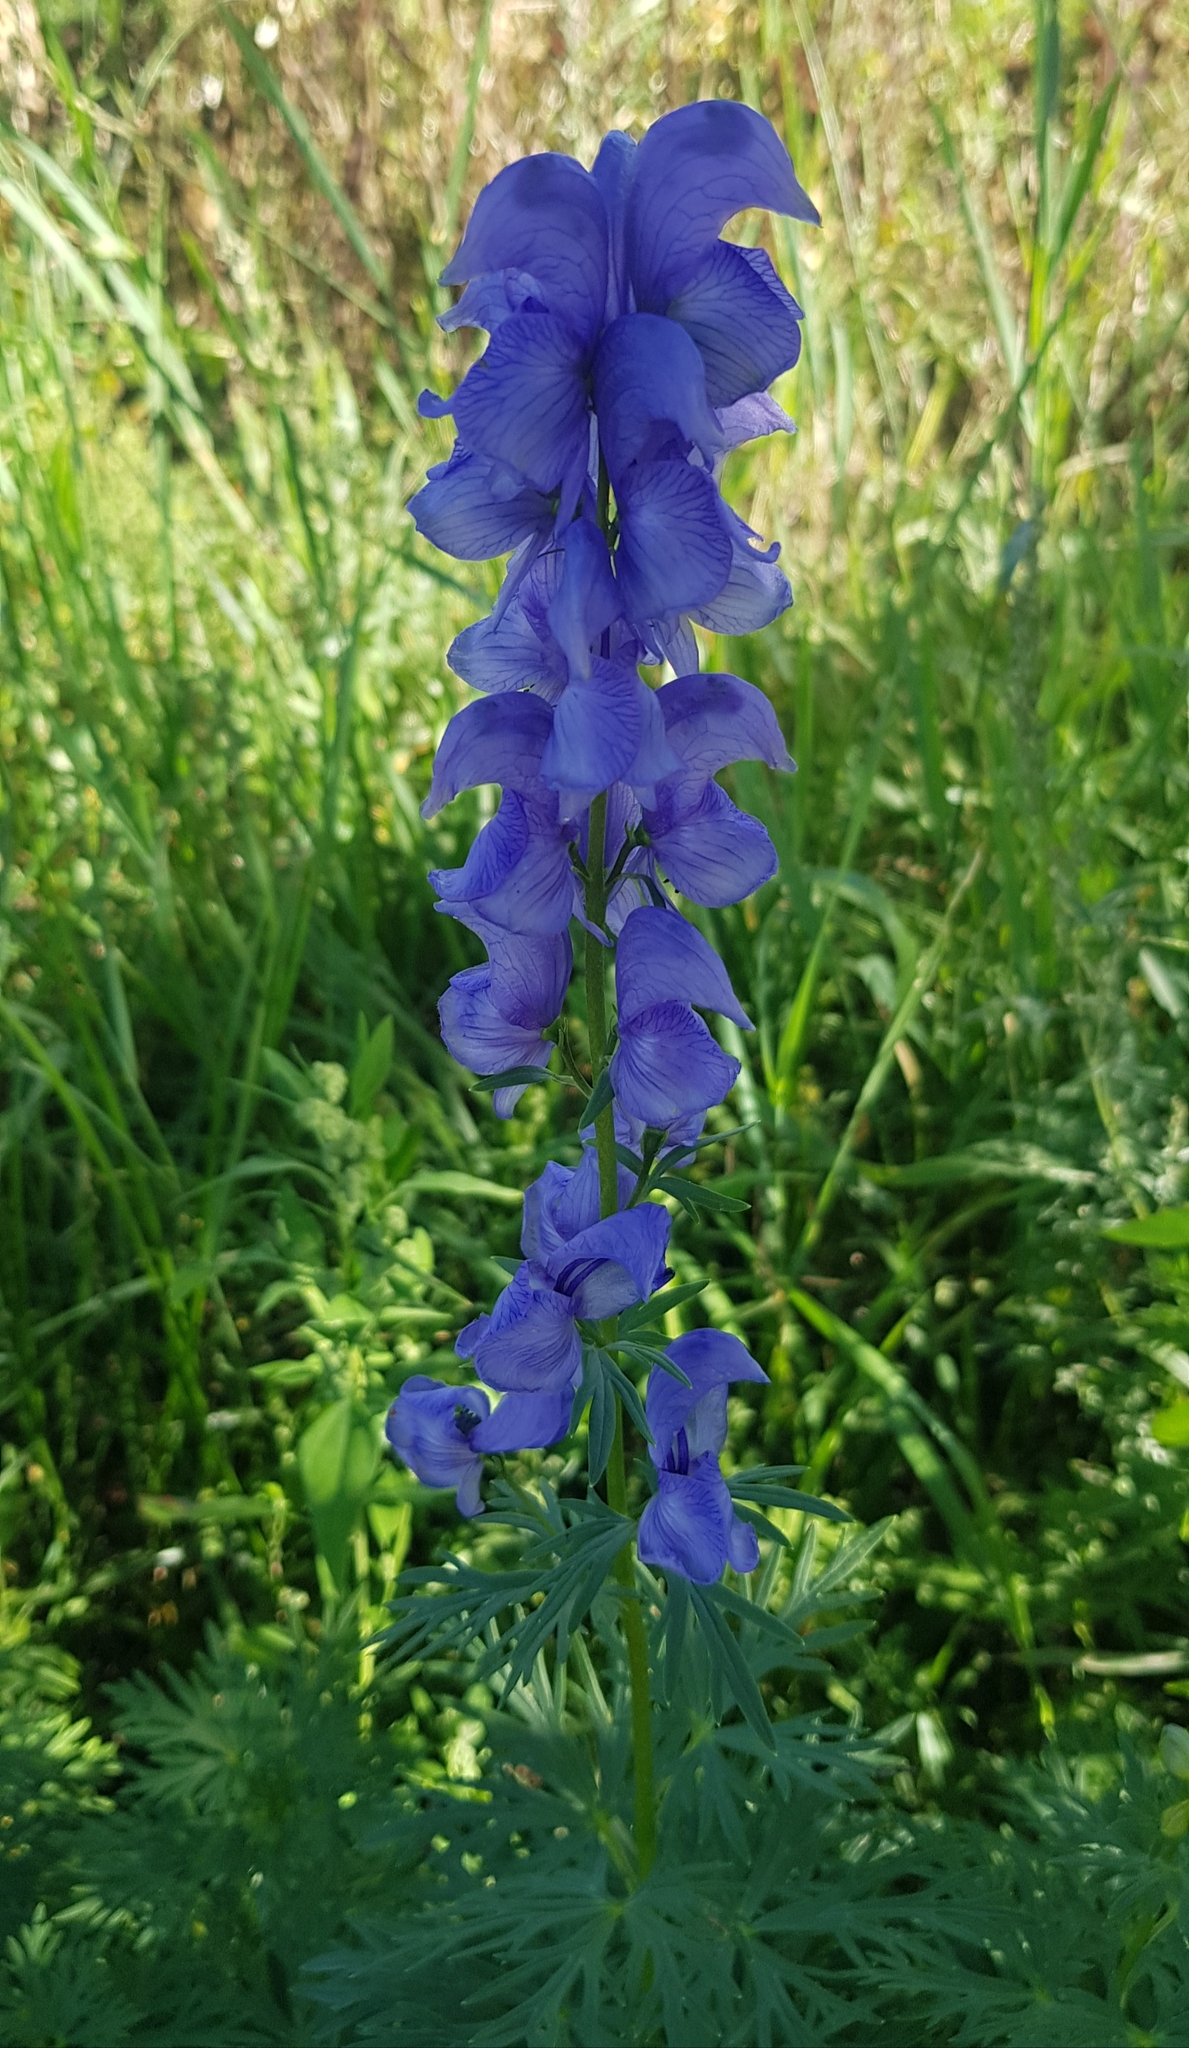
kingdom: Plantae
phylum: Tracheophyta
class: Magnoliopsida
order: Ranunculales
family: Ranunculaceae
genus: Aconitum
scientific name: Aconitum glandulosum
